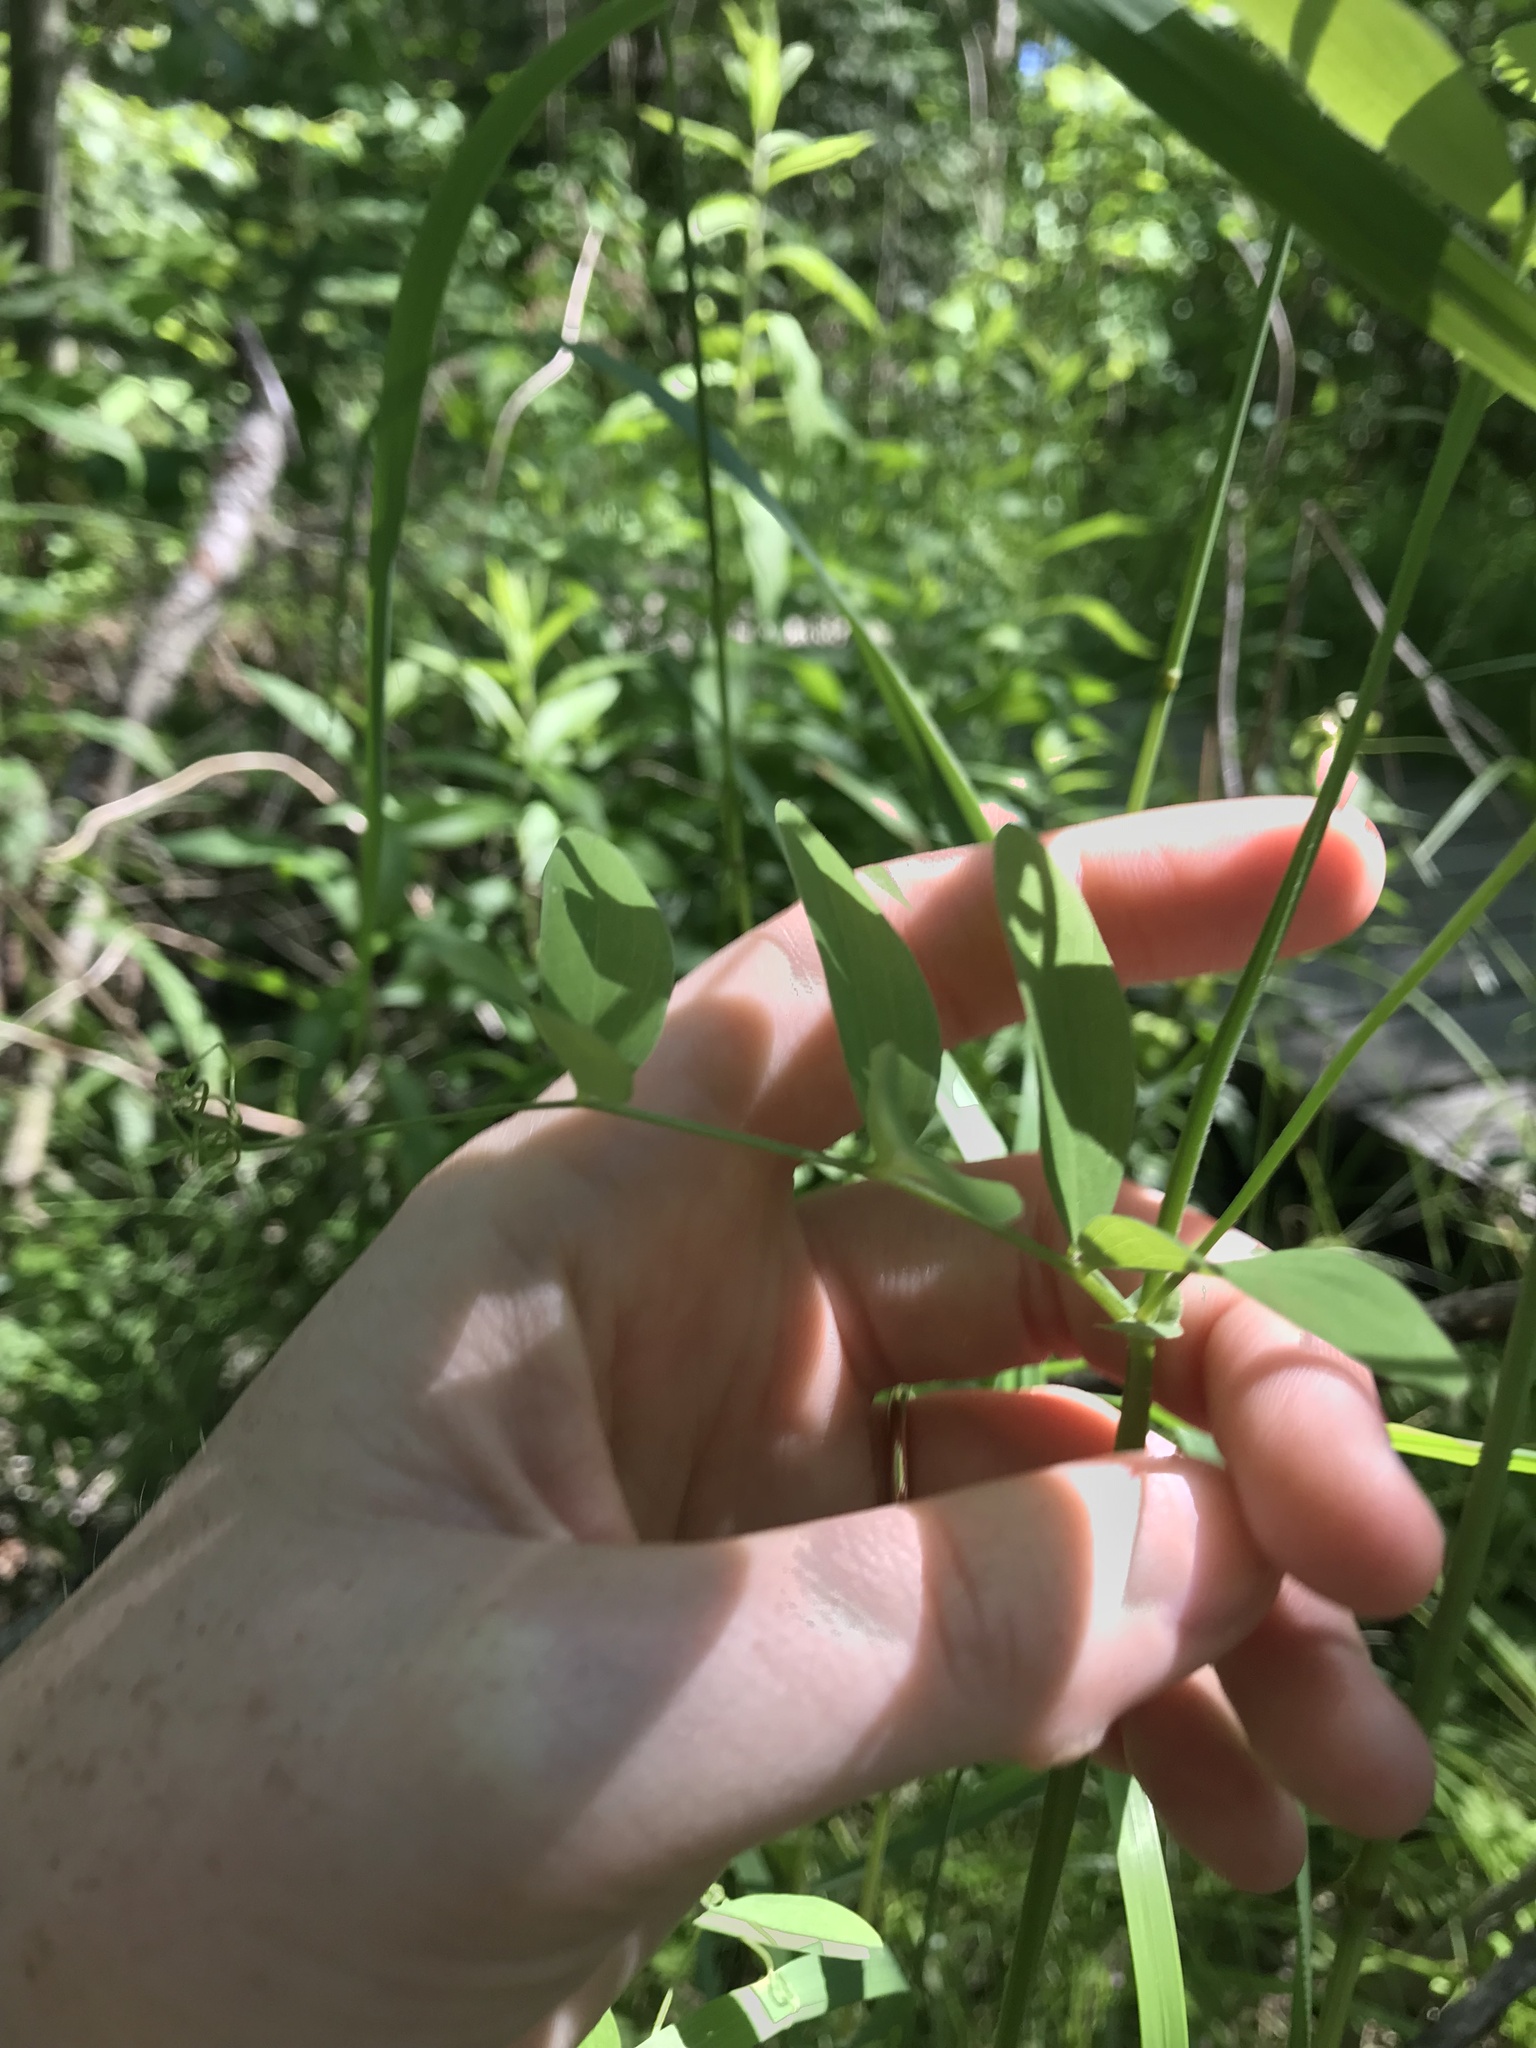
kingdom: Plantae
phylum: Tracheophyta
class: Magnoliopsida
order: Fabales
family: Fabaceae
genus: Lathyrus
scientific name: Lathyrus palustris
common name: Marsh pea
